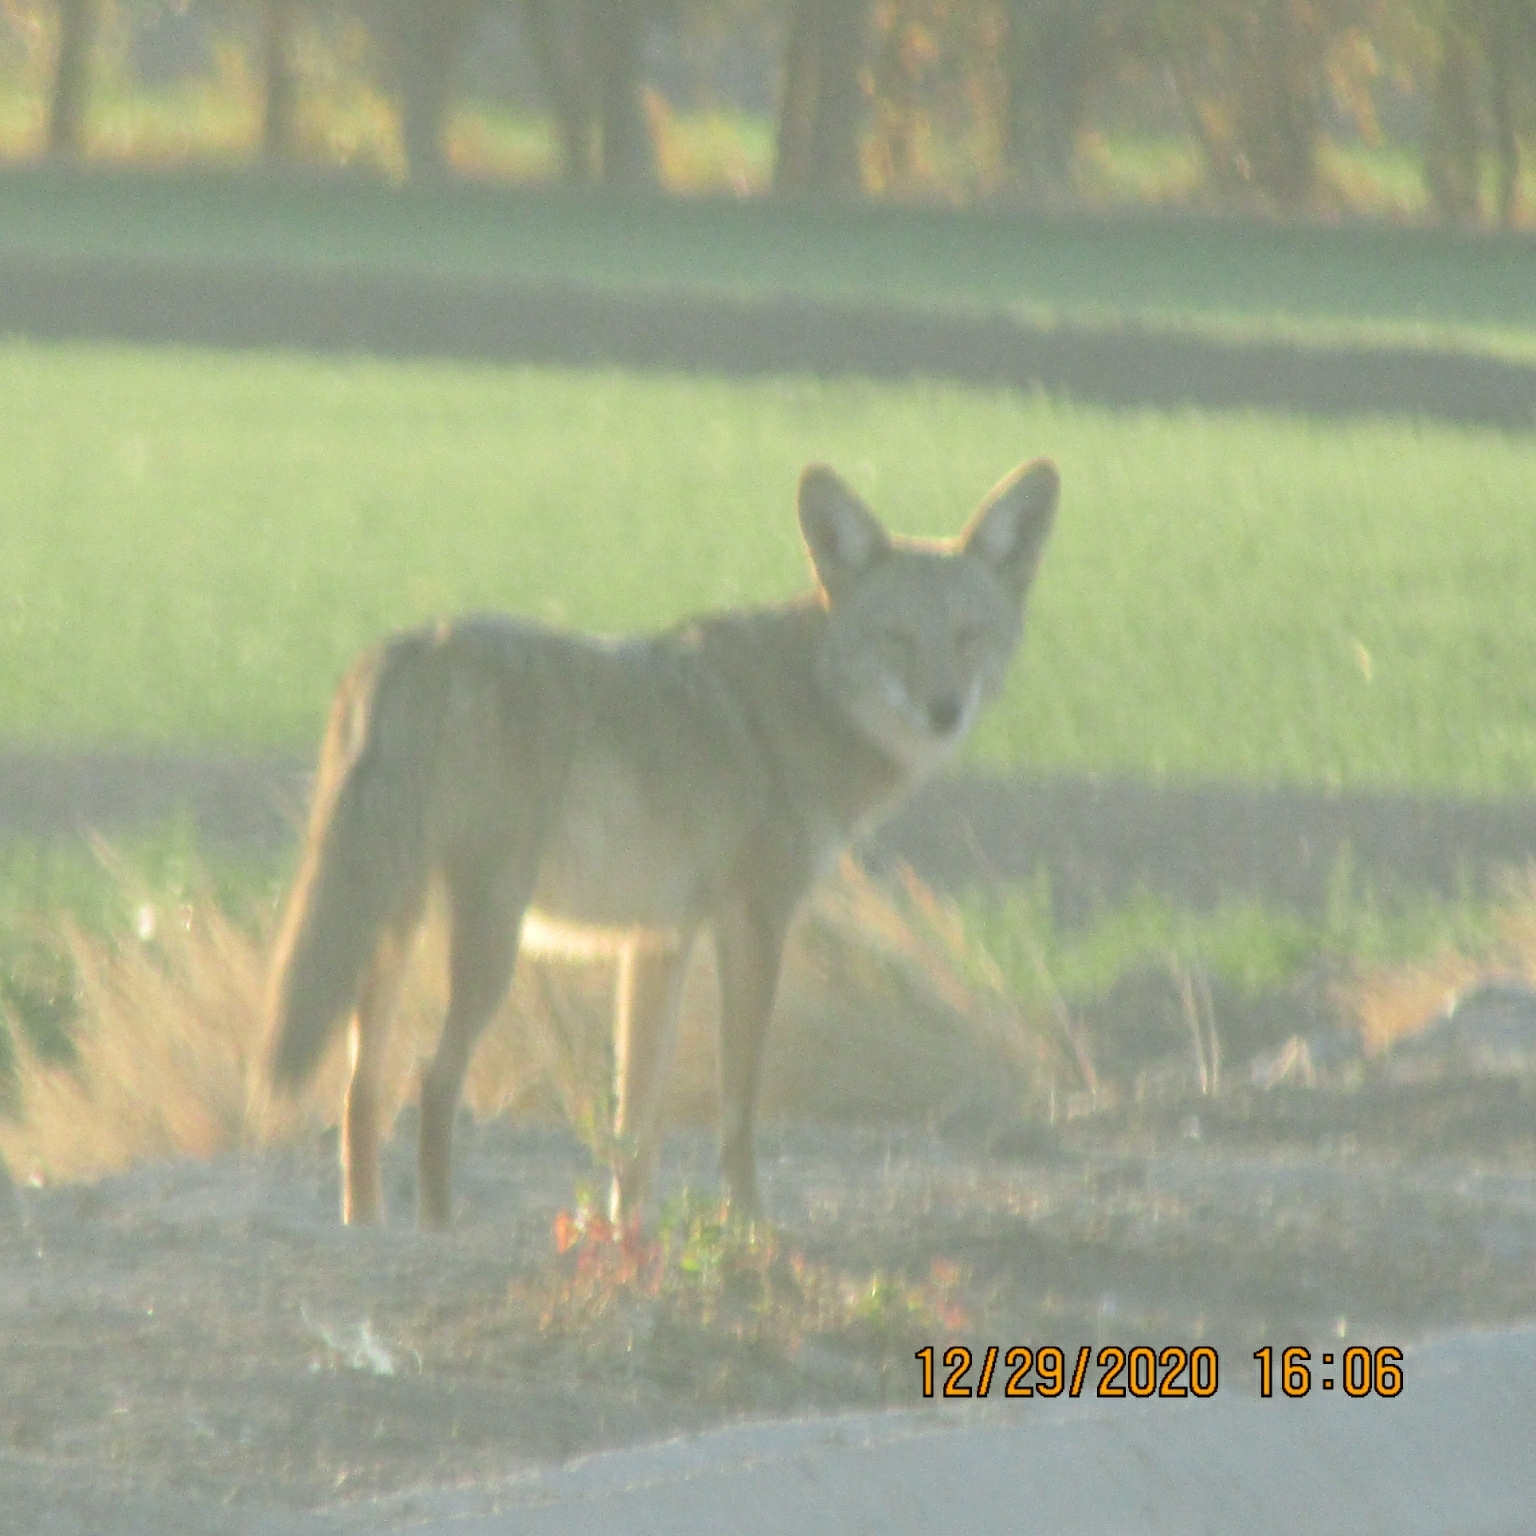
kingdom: Animalia
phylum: Chordata
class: Mammalia
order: Carnivora
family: Canidae
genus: Canis
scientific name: Canis latrans
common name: Coyote
